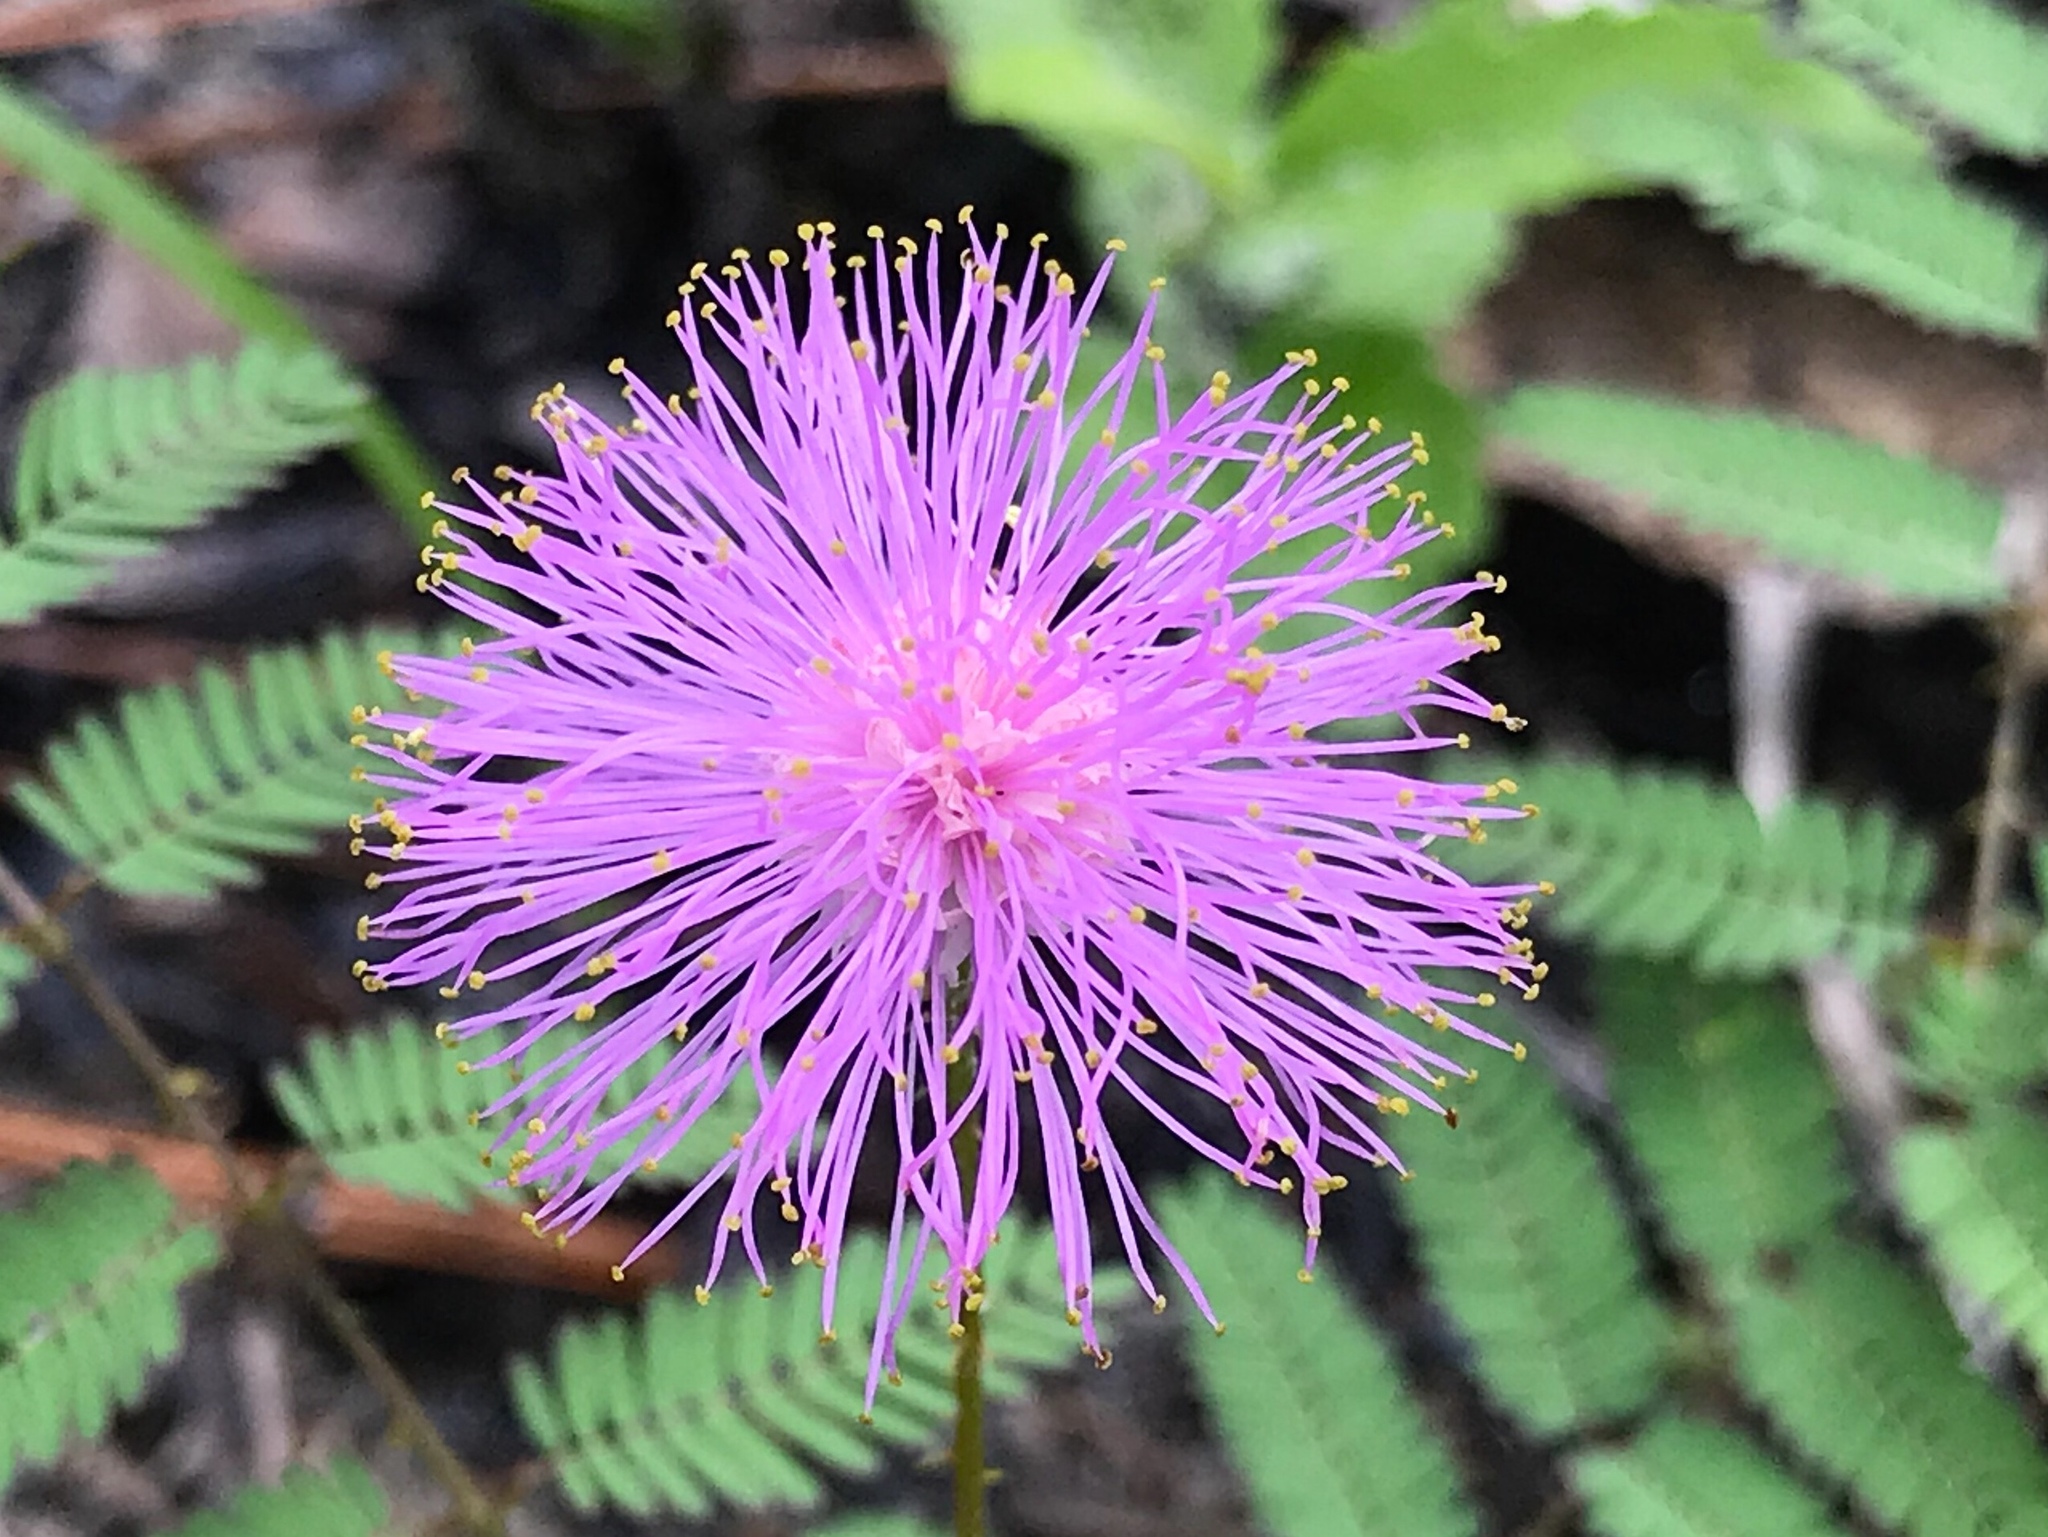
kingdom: Plantae
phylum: Tracheophyta
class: Magnoliopsida
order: Fabales
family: Fabaceae
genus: Mimosa
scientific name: Mimosa quadrivalvis
